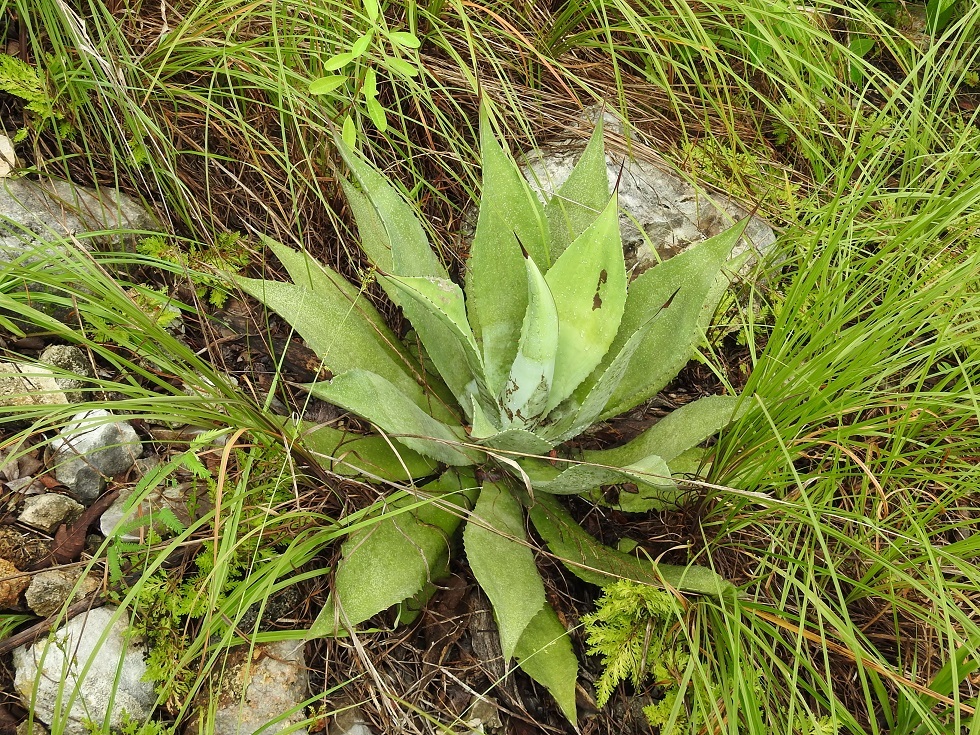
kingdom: Plantae
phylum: Tracheophyta
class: Liliopsida
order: Asparagales
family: Asparagaceae
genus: Agave
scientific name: Agave hiemiflora
